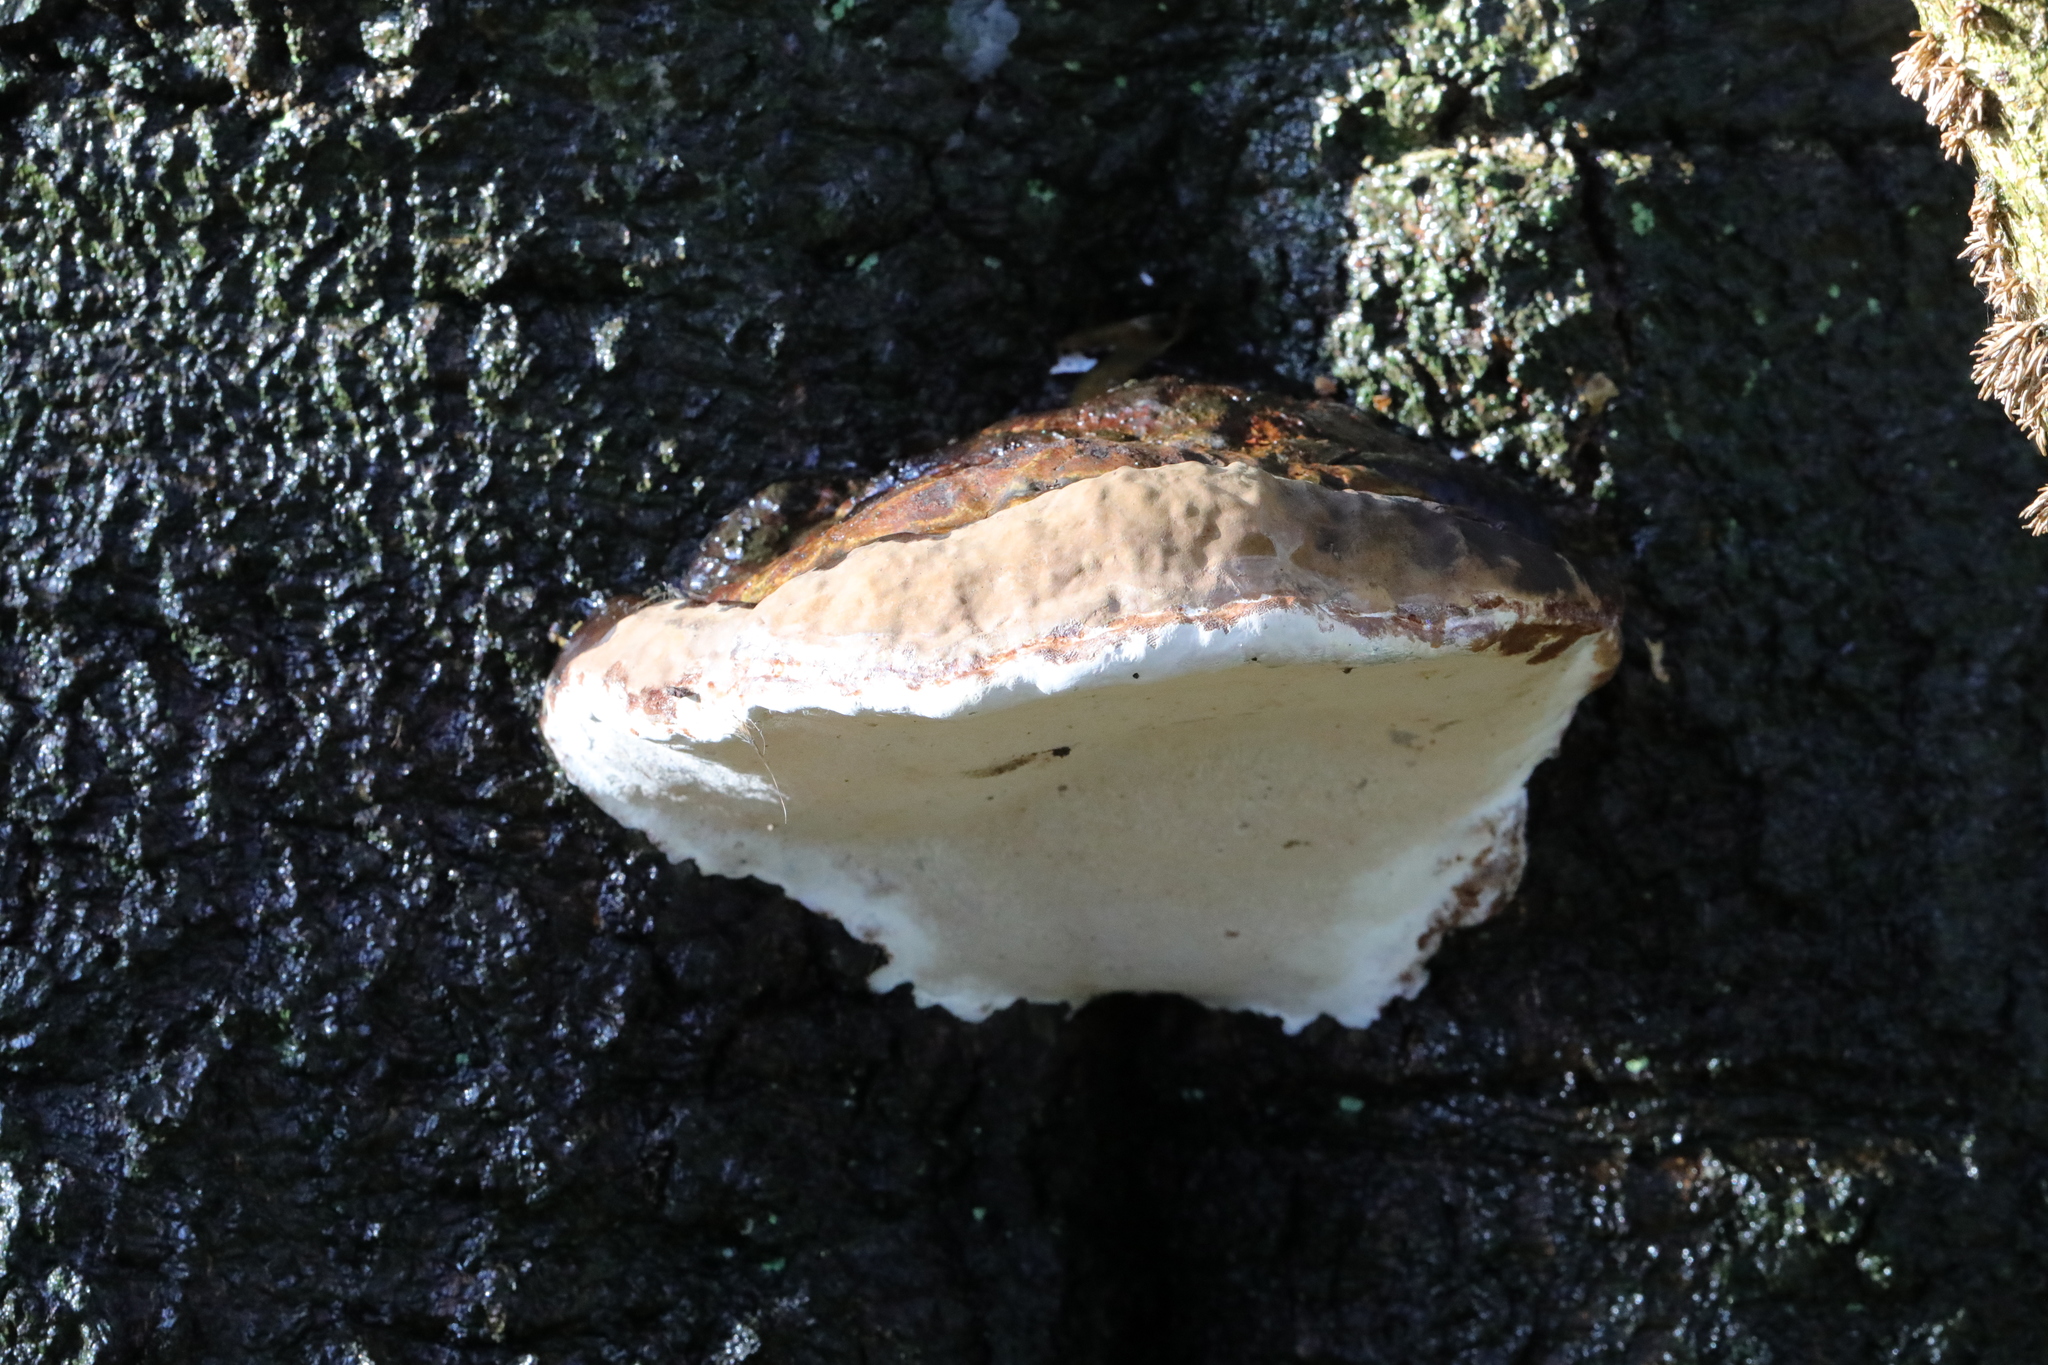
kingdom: Fungi
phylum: Basidiomycota
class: Agaricomycetes
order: Polyporales
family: Polyporaceae
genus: Ganoderma
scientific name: Ganoderma applanatum
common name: Artist's bracket
